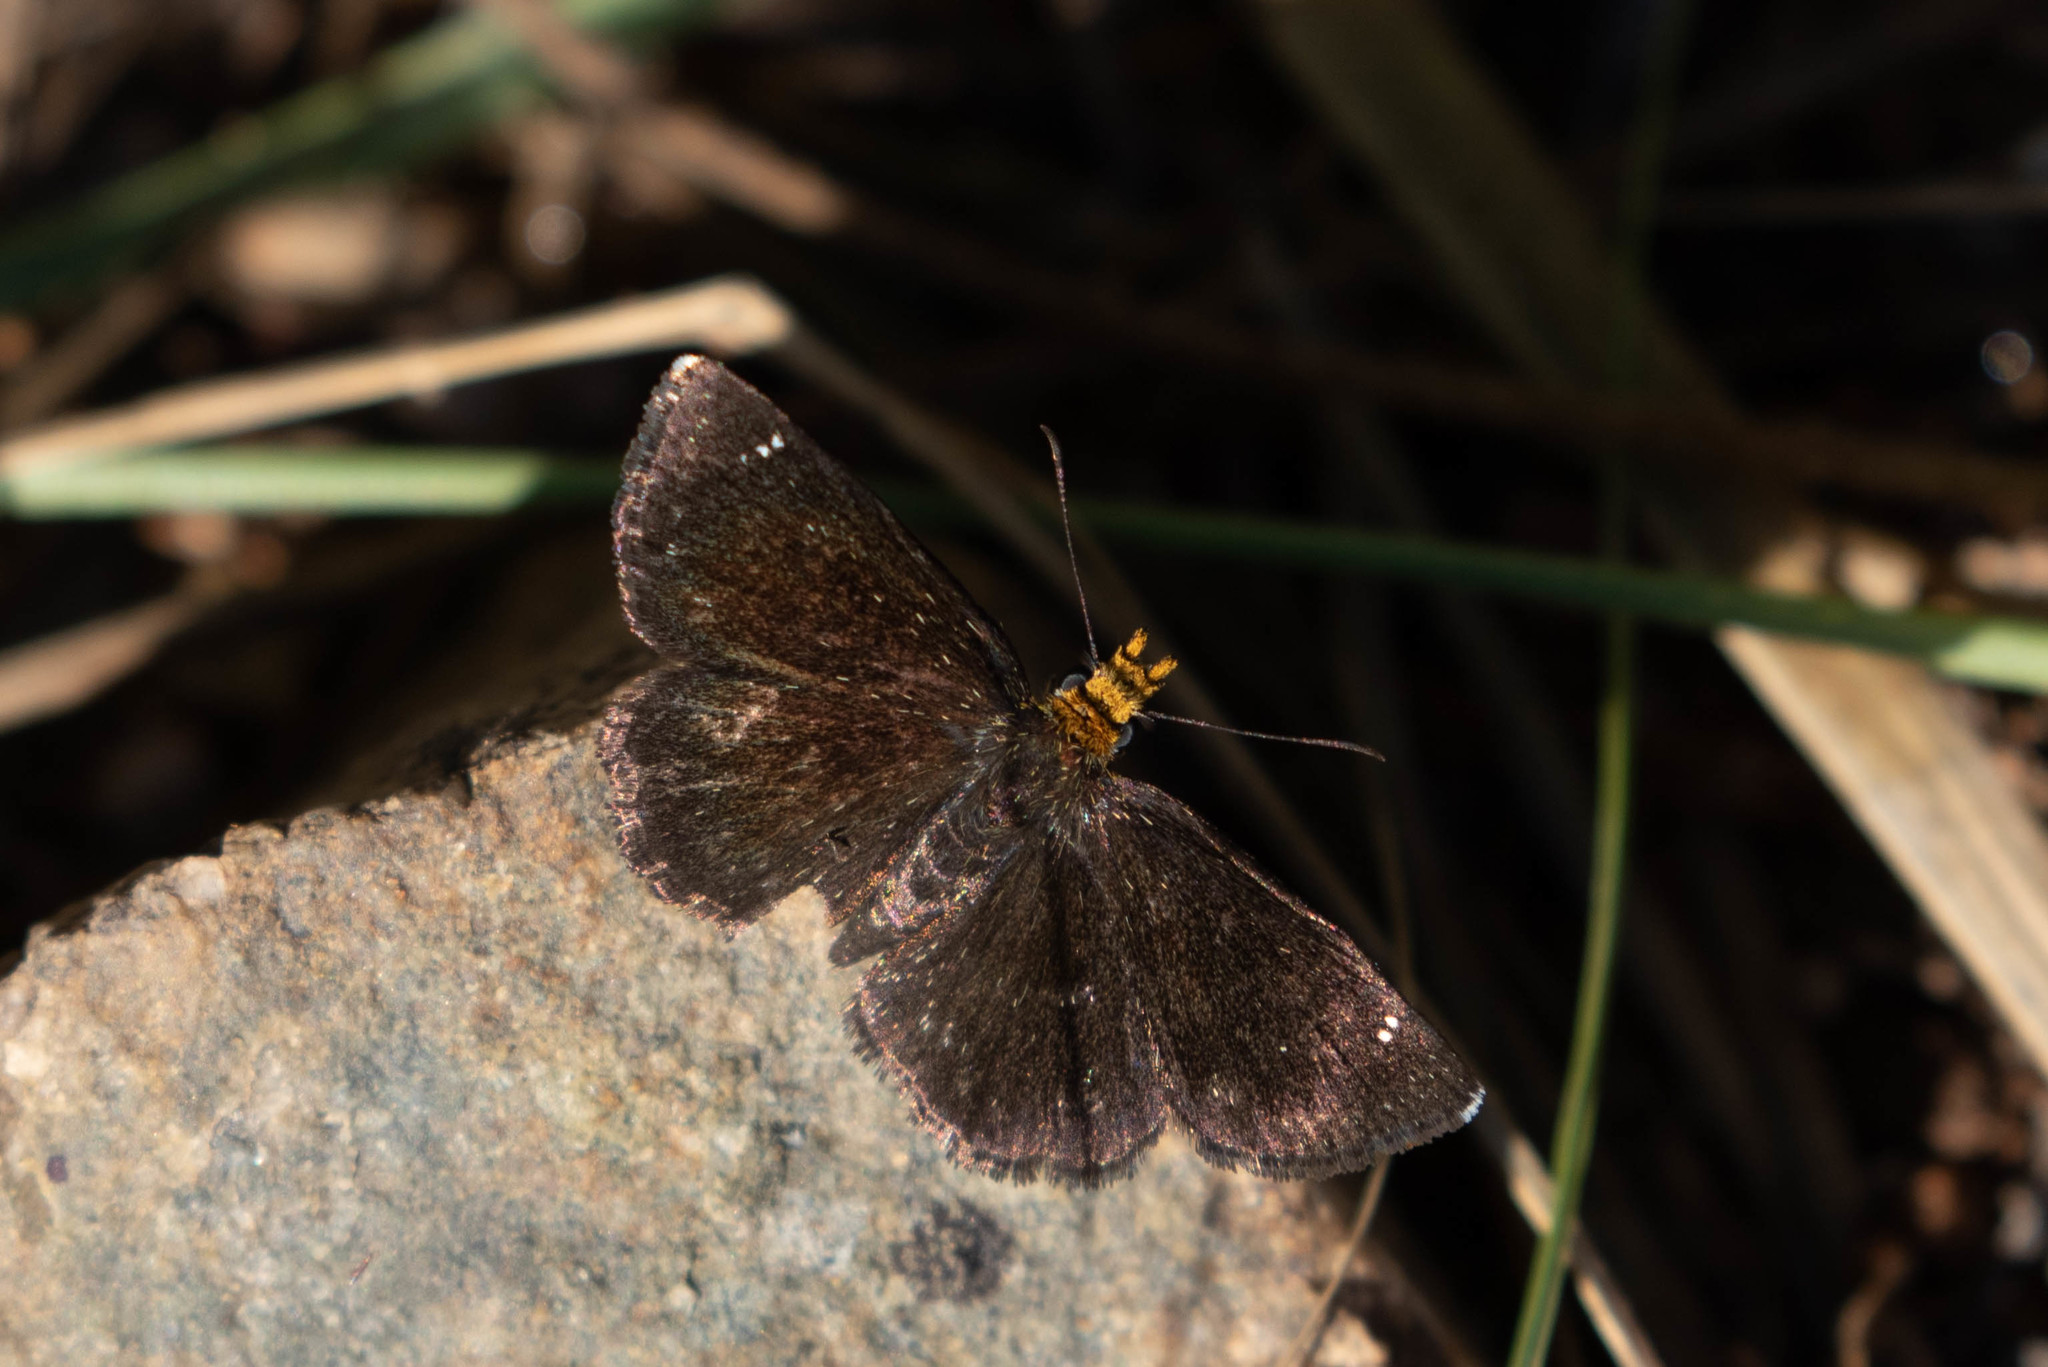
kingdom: Animalia
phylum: Arthropoda
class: Insecta
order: Lepidoptera
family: Hesperiidae
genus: Staphylus
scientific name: Staphylus ceos
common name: Golden-headed scallopwing
